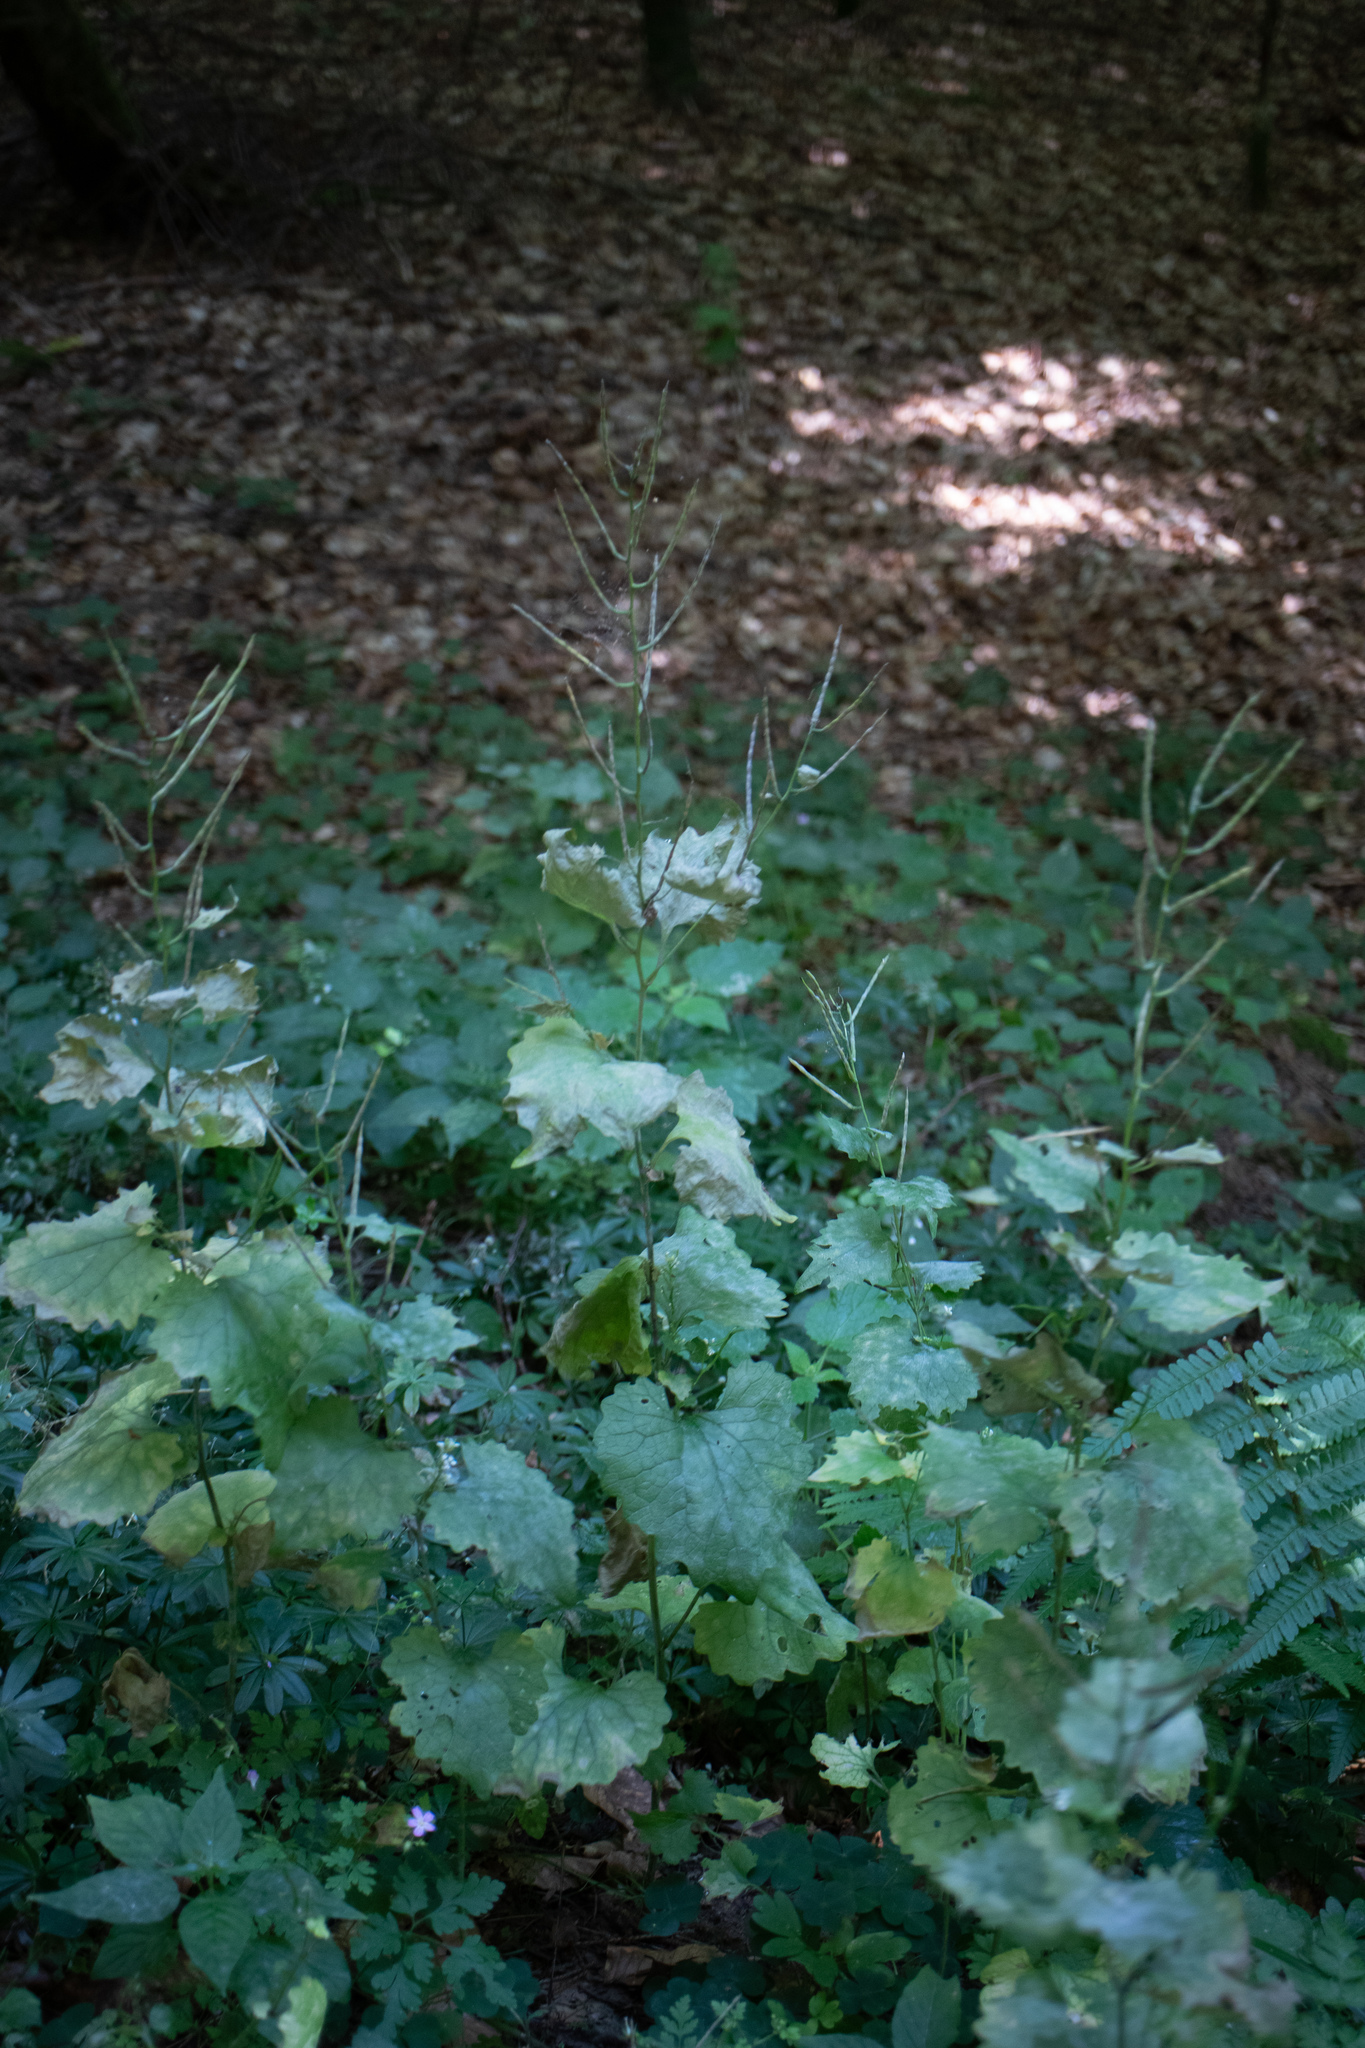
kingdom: Plantae
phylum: Tracheophyta
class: Magnoliopsida
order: Brassicales
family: Brassicaceae
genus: Alliaria
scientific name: Alliaria petiolata
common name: Garlic mustard
